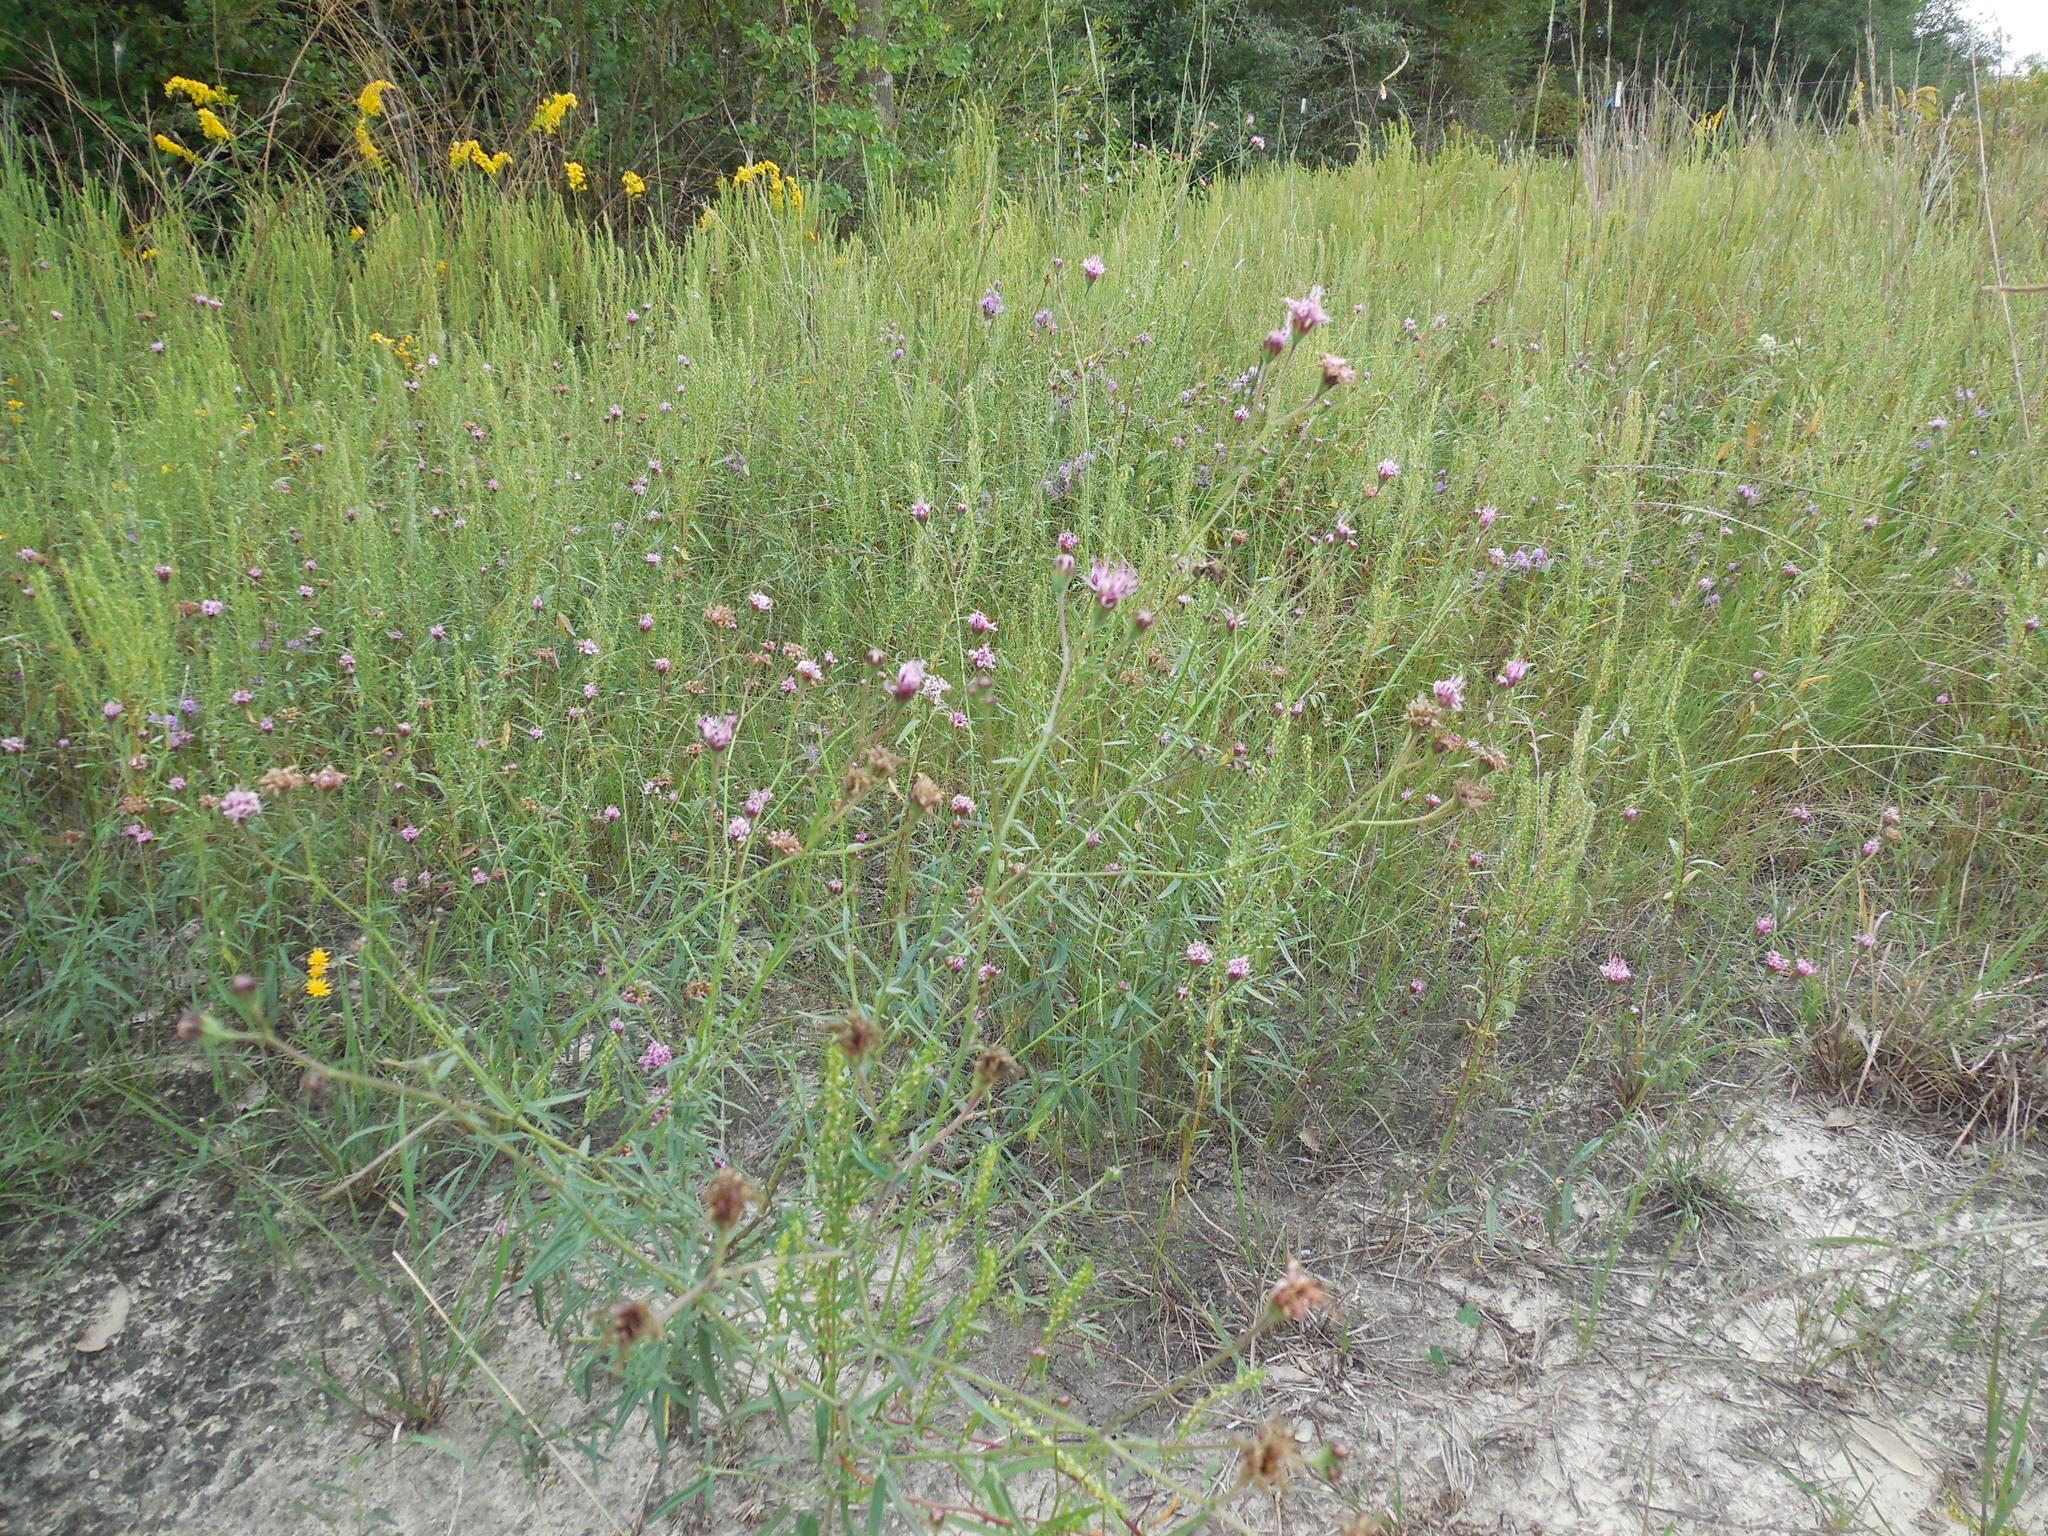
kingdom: Plantae
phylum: Tracheophyta
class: Magnoliopsida
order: Asterales
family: Asteraceae
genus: Palafoxia
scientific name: Palafoxia rosea
